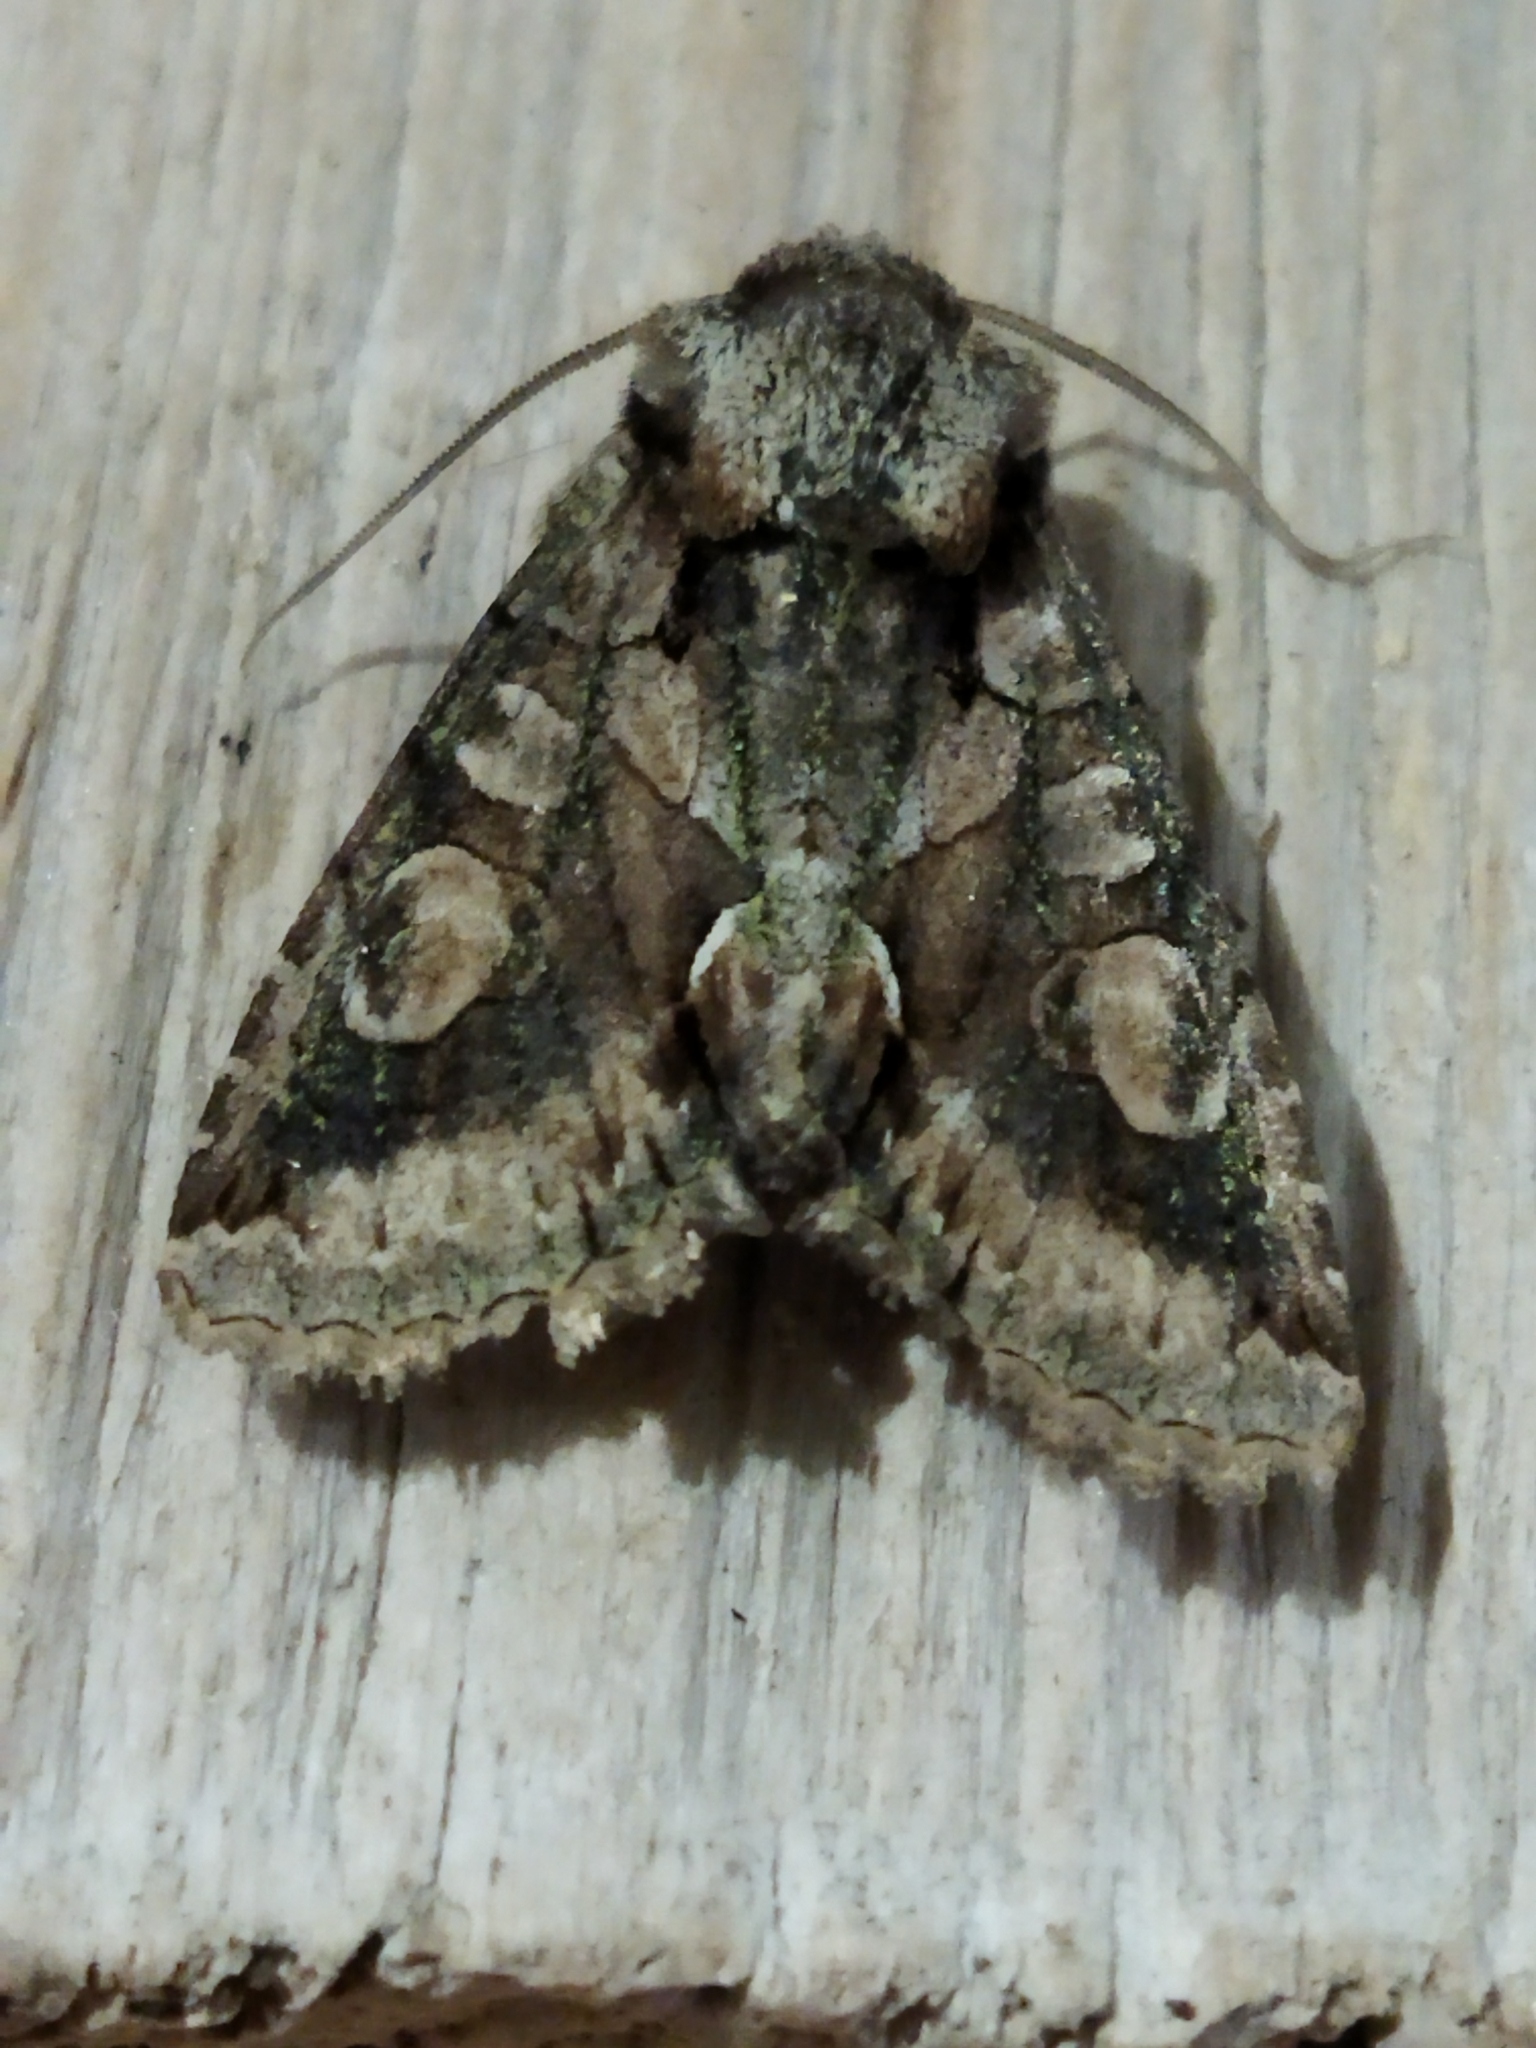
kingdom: Animalia
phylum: Arthropoda
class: Insecta
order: Lepidoptera
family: Noctuidae
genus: Allophyes
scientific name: Allophyes oxyacanthae
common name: Green-brindled crescent
